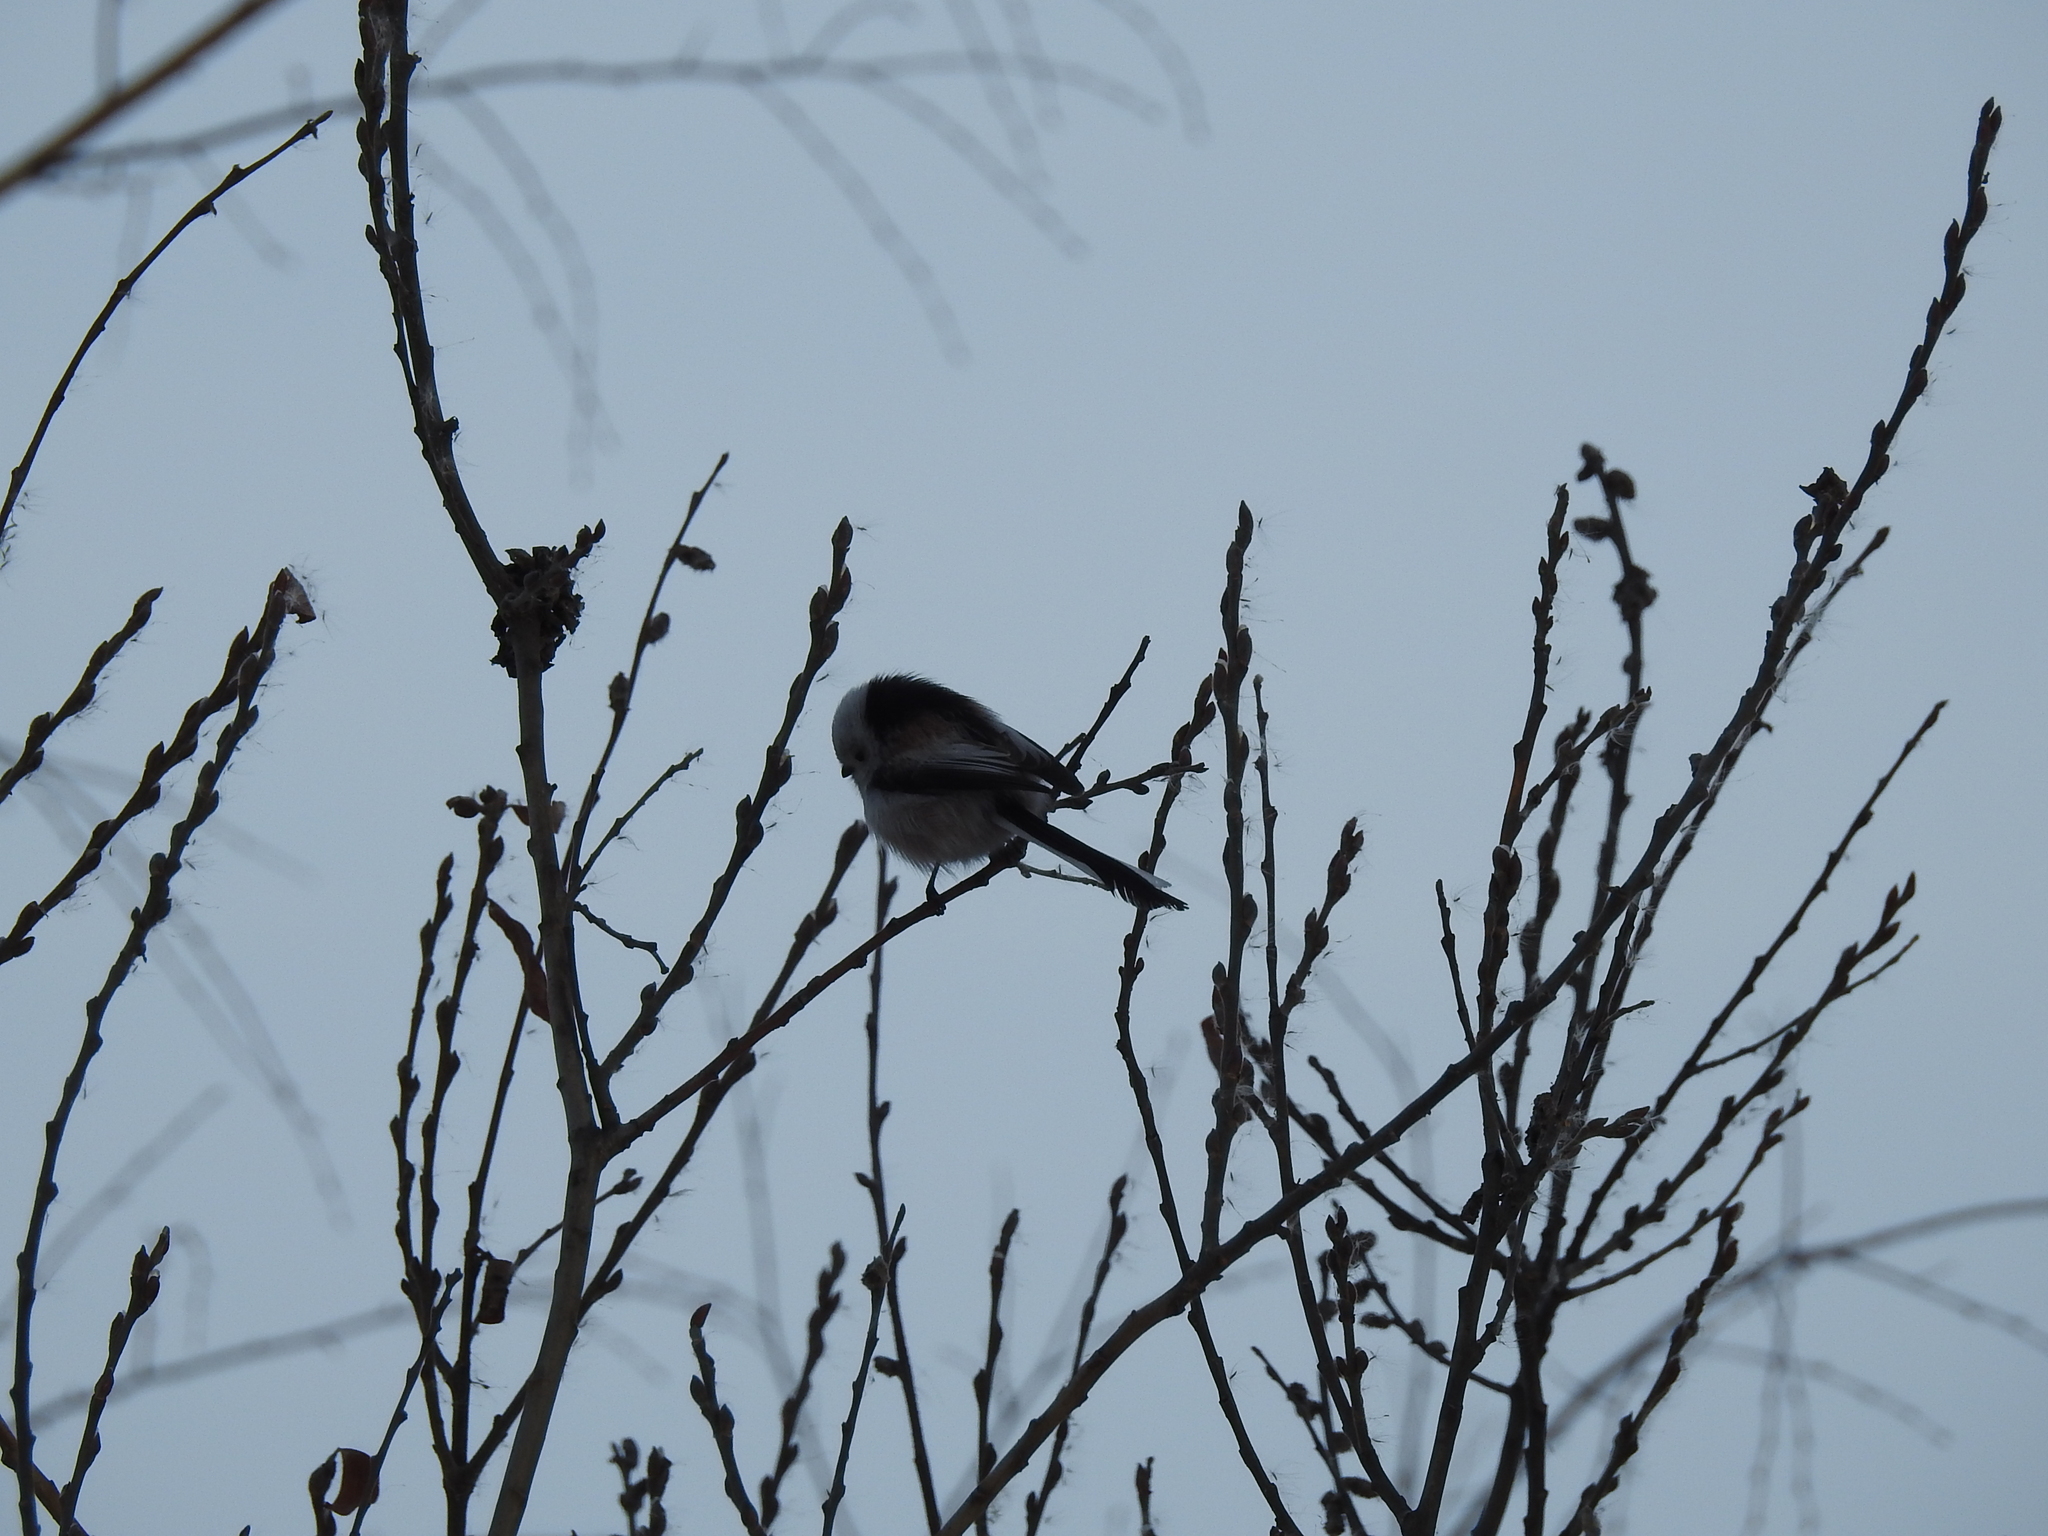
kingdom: Animalia
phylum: Chordata
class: Aves
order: Passeriformes
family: Aegithalidae
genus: Aegithalos
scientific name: Aegithalos caudatus
